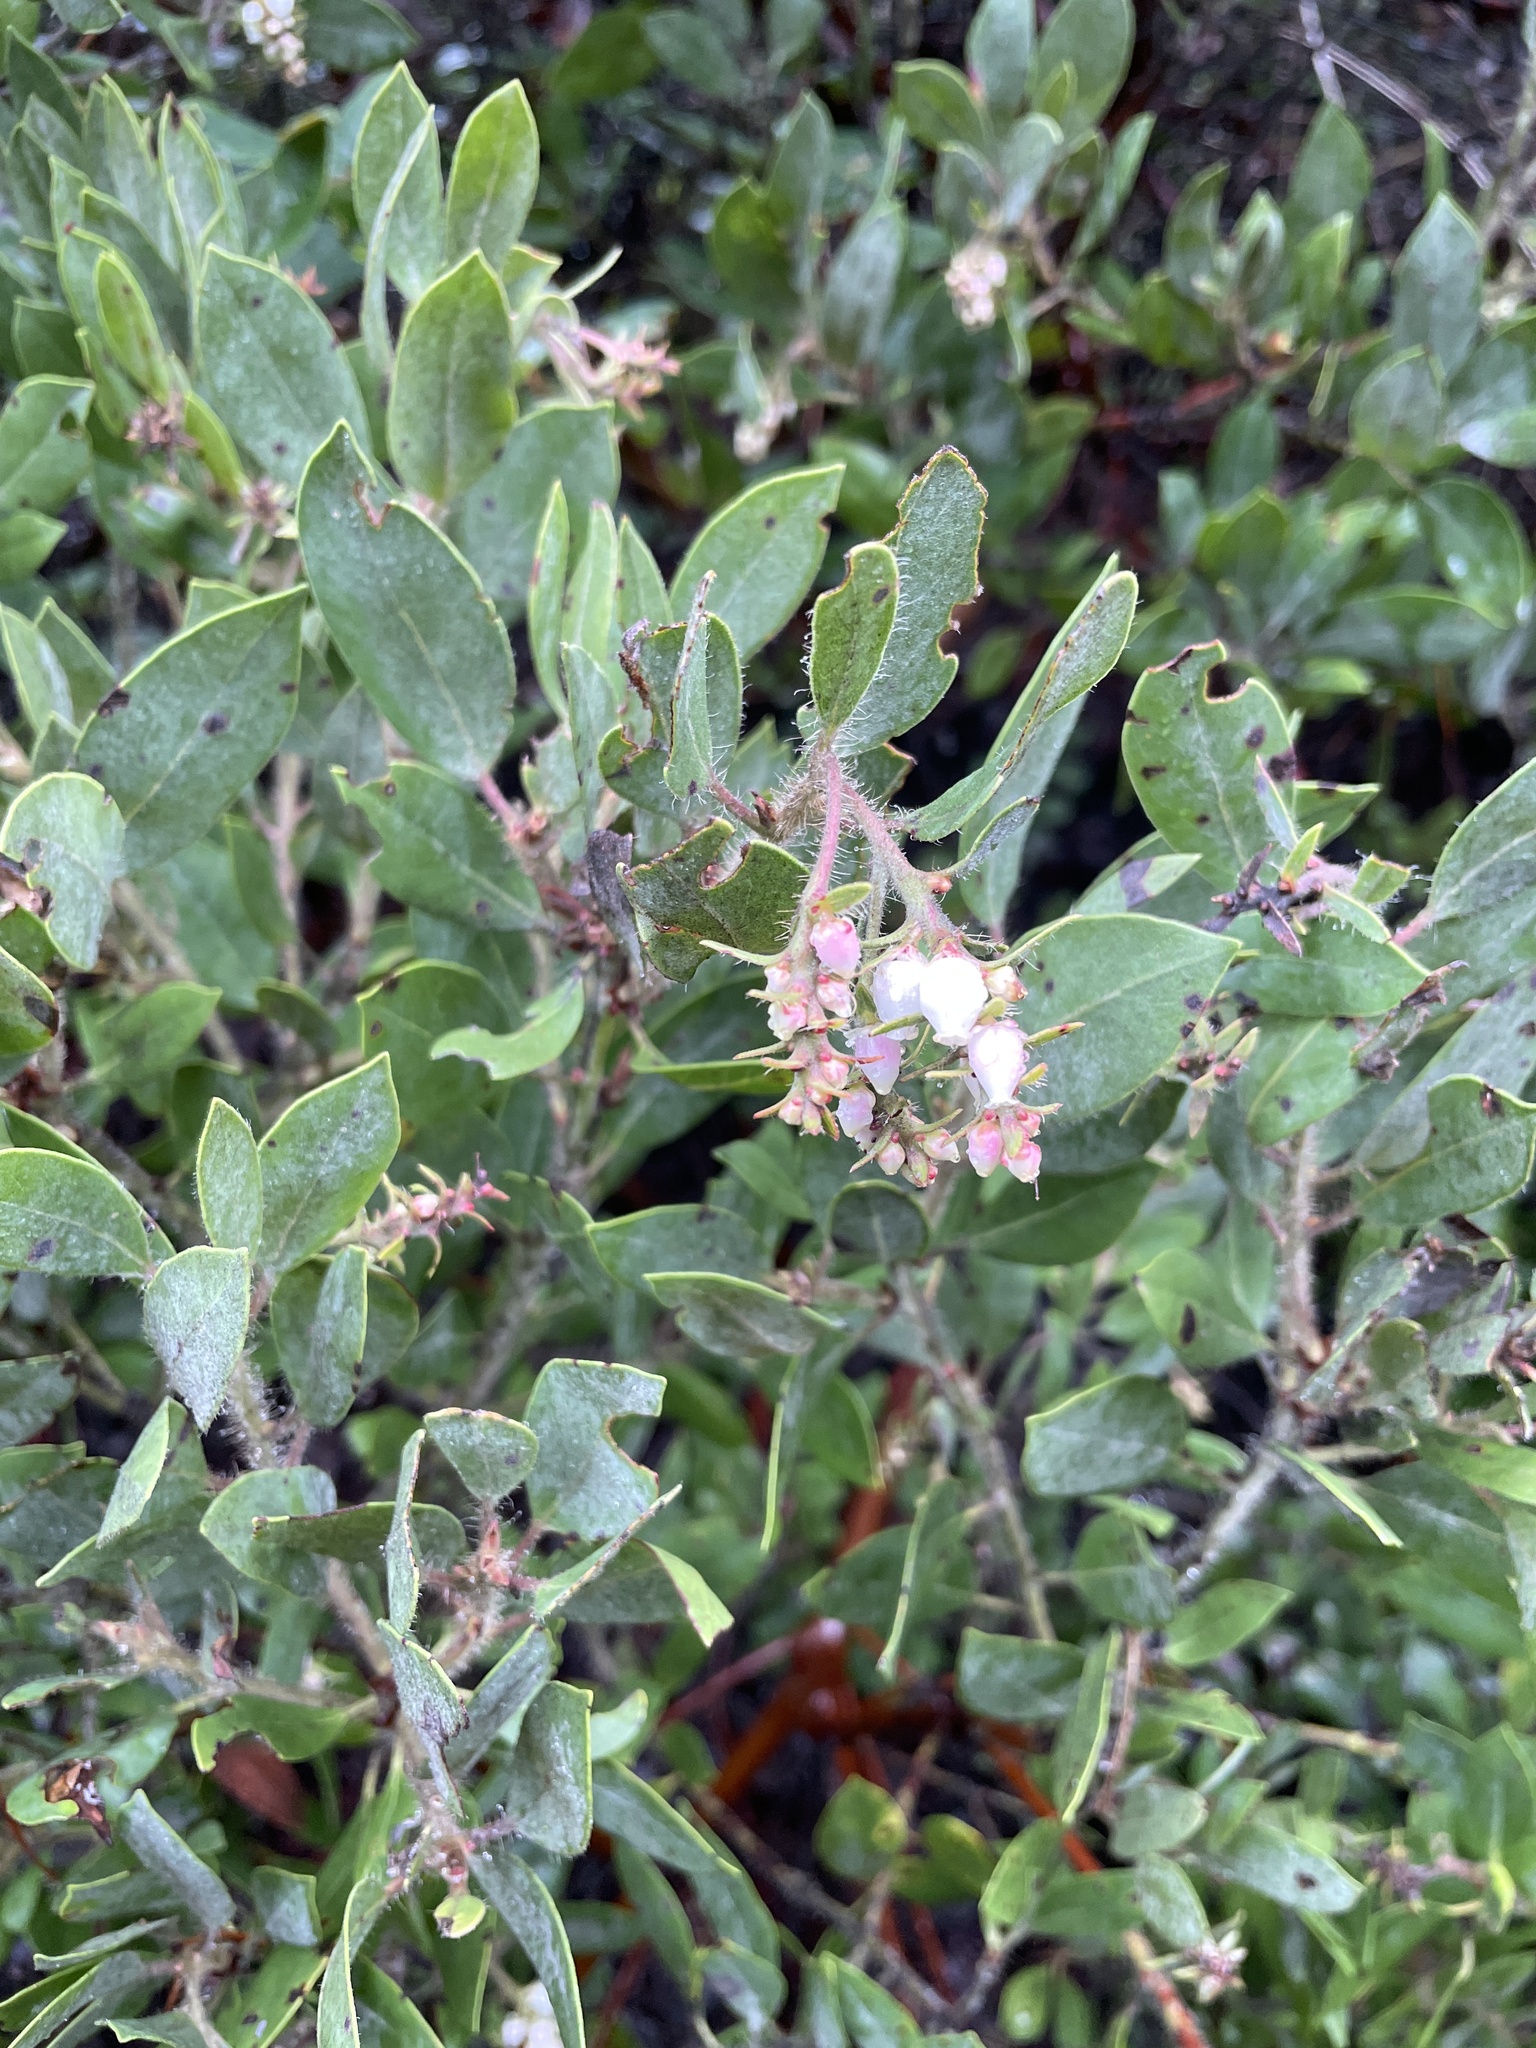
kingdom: Plantae
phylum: Tracheophyta
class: Magnoliopsida
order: Ericales
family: Ericaceae
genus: Arctostaphylos
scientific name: Arctostaphylos columbiana
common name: Bristly bearberry
